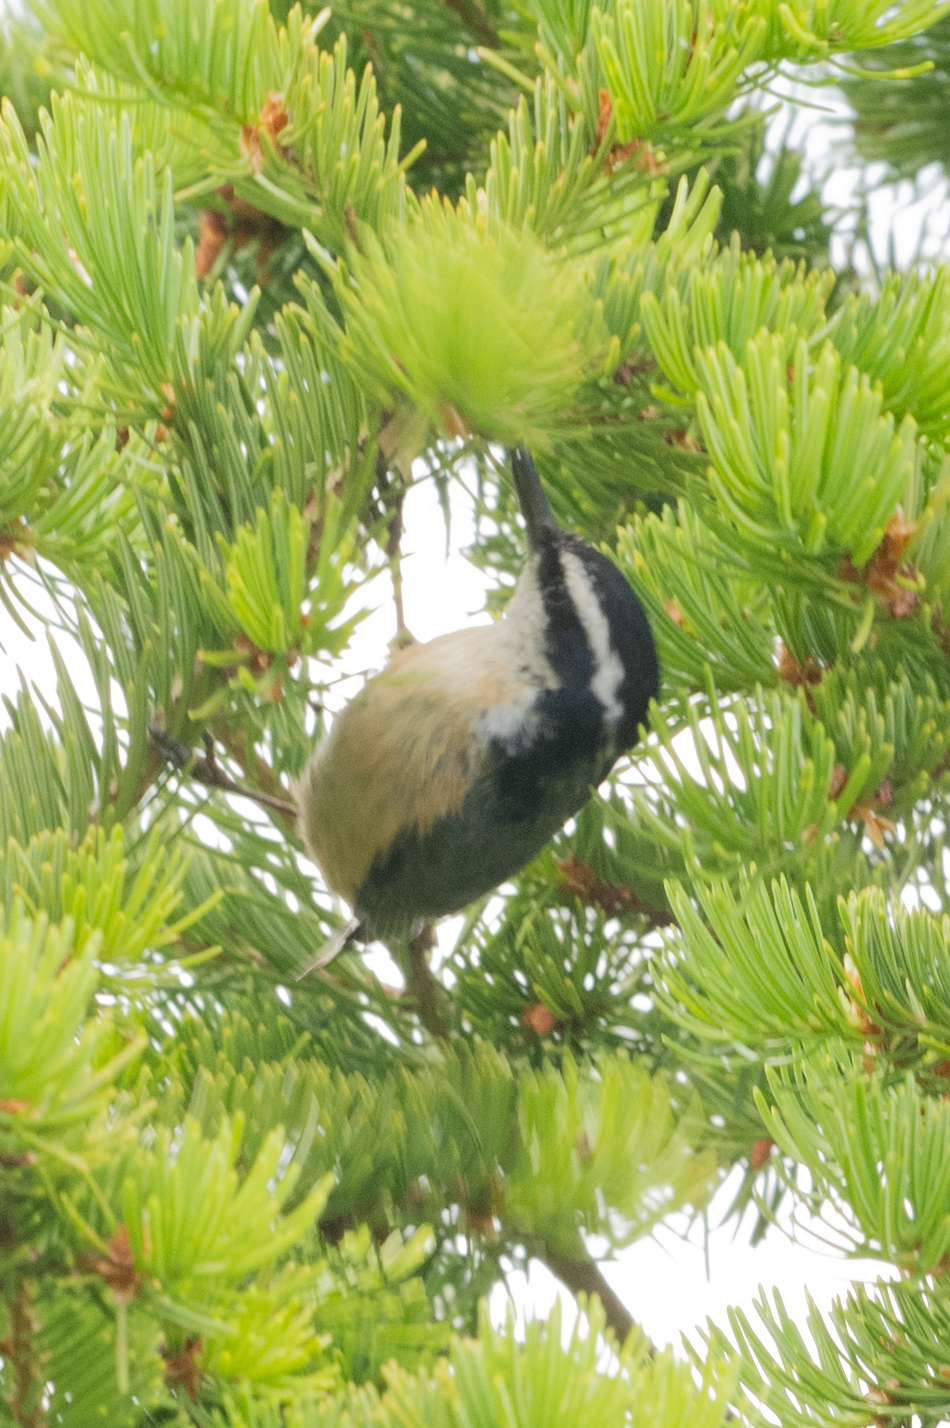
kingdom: Animalia
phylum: Chordata
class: Aves
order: Passeriformes
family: Sittidae
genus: Sitta
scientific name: Sitta canadensis
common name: Red-breasted nuthatch
